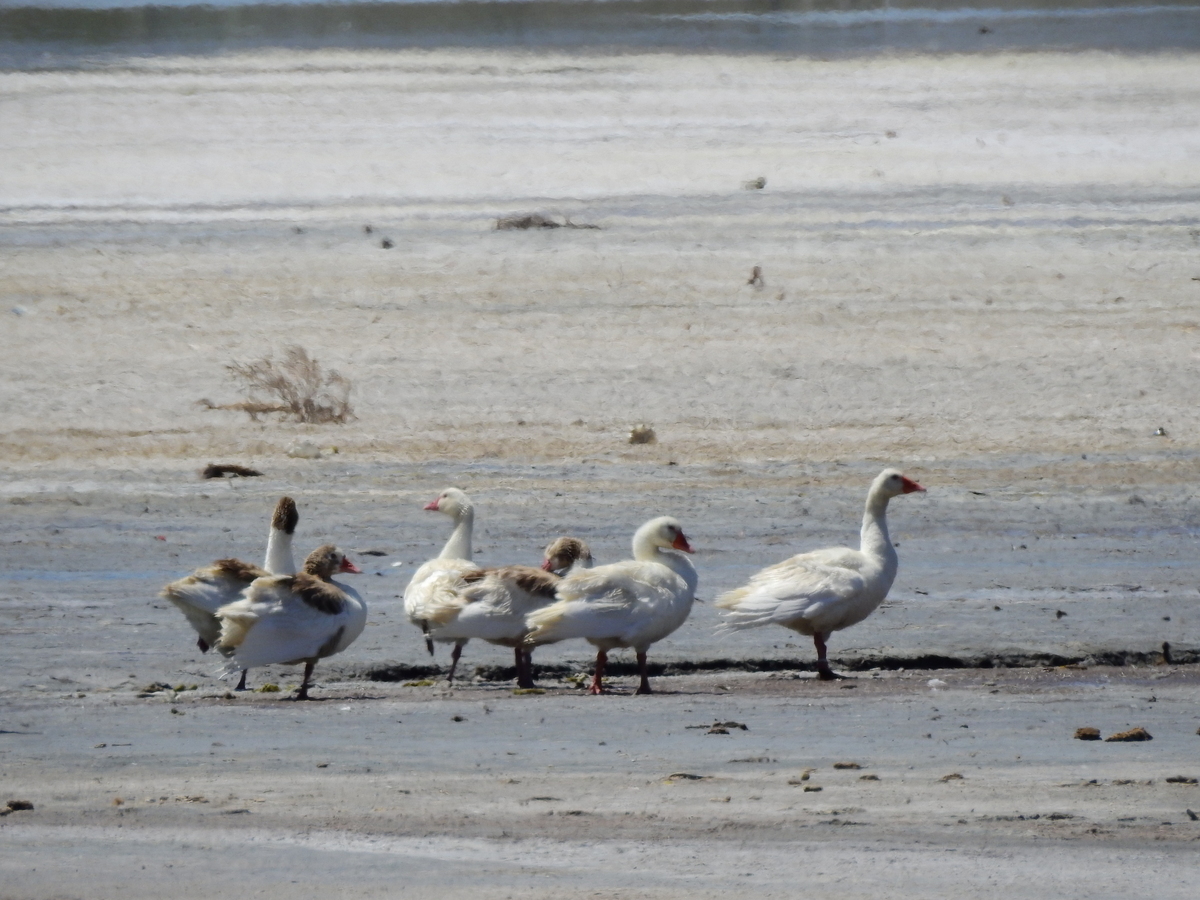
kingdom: Animalia
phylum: Chordata
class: Aves
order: Anseriformes
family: Anatidae
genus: Anser
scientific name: Anser anser
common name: Greylag goose
